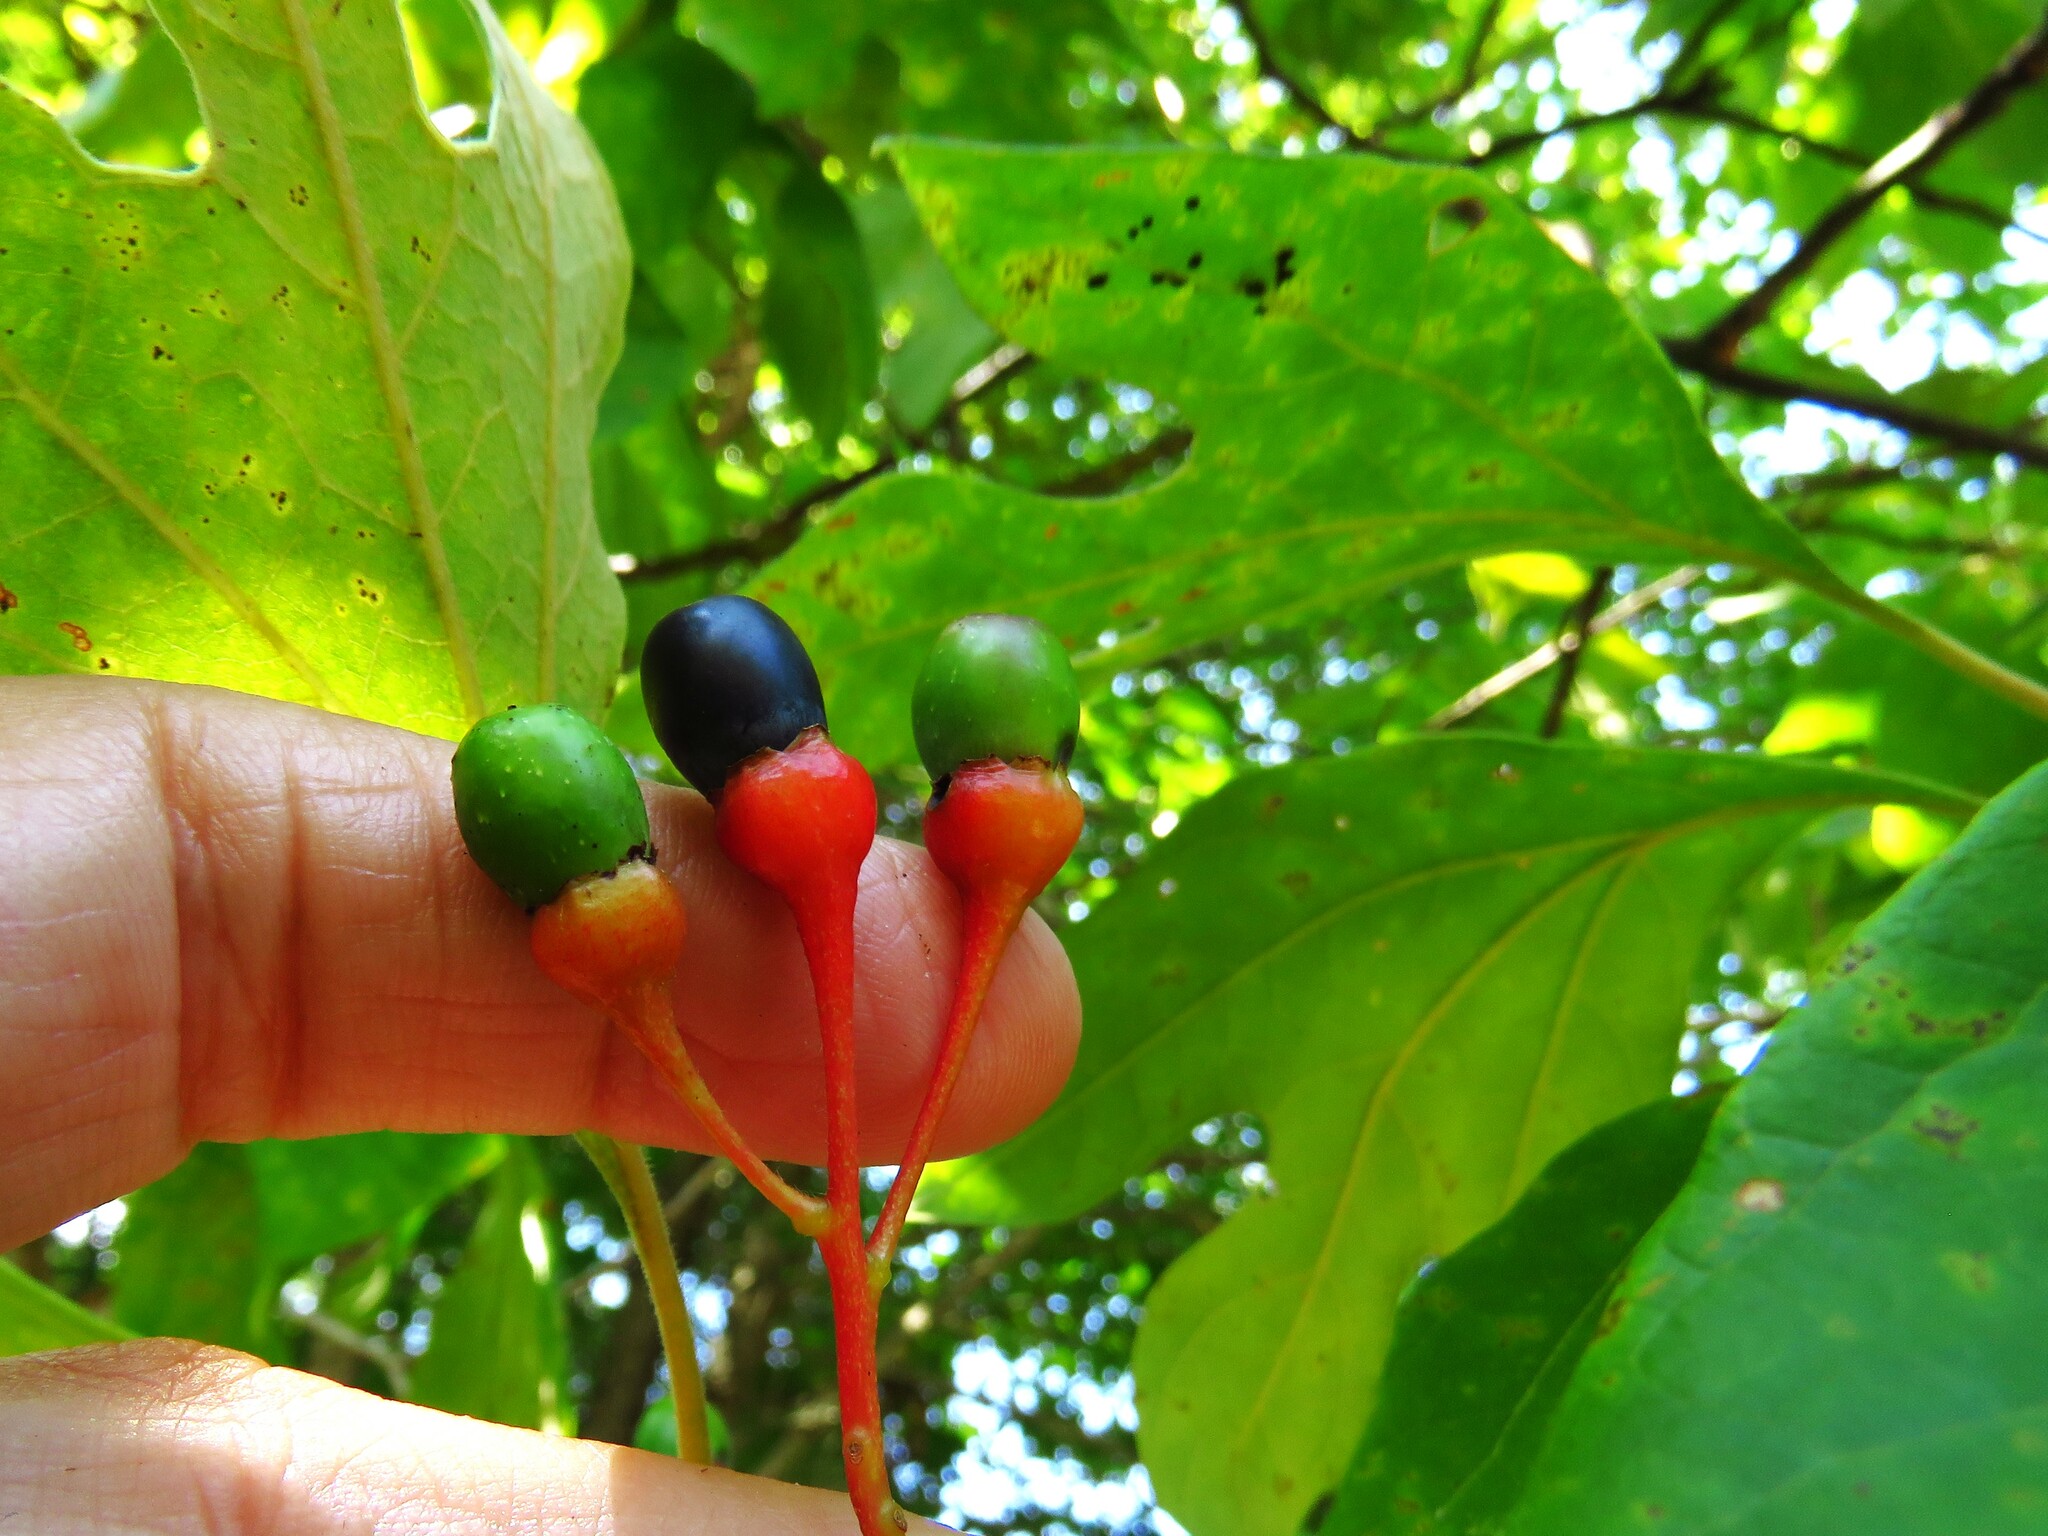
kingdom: Plantae
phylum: Tracheophyta
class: Magnoliopsida
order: Laurales
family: Lauraceae
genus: Sassafras
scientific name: Sassafras albidum
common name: Sassafras
